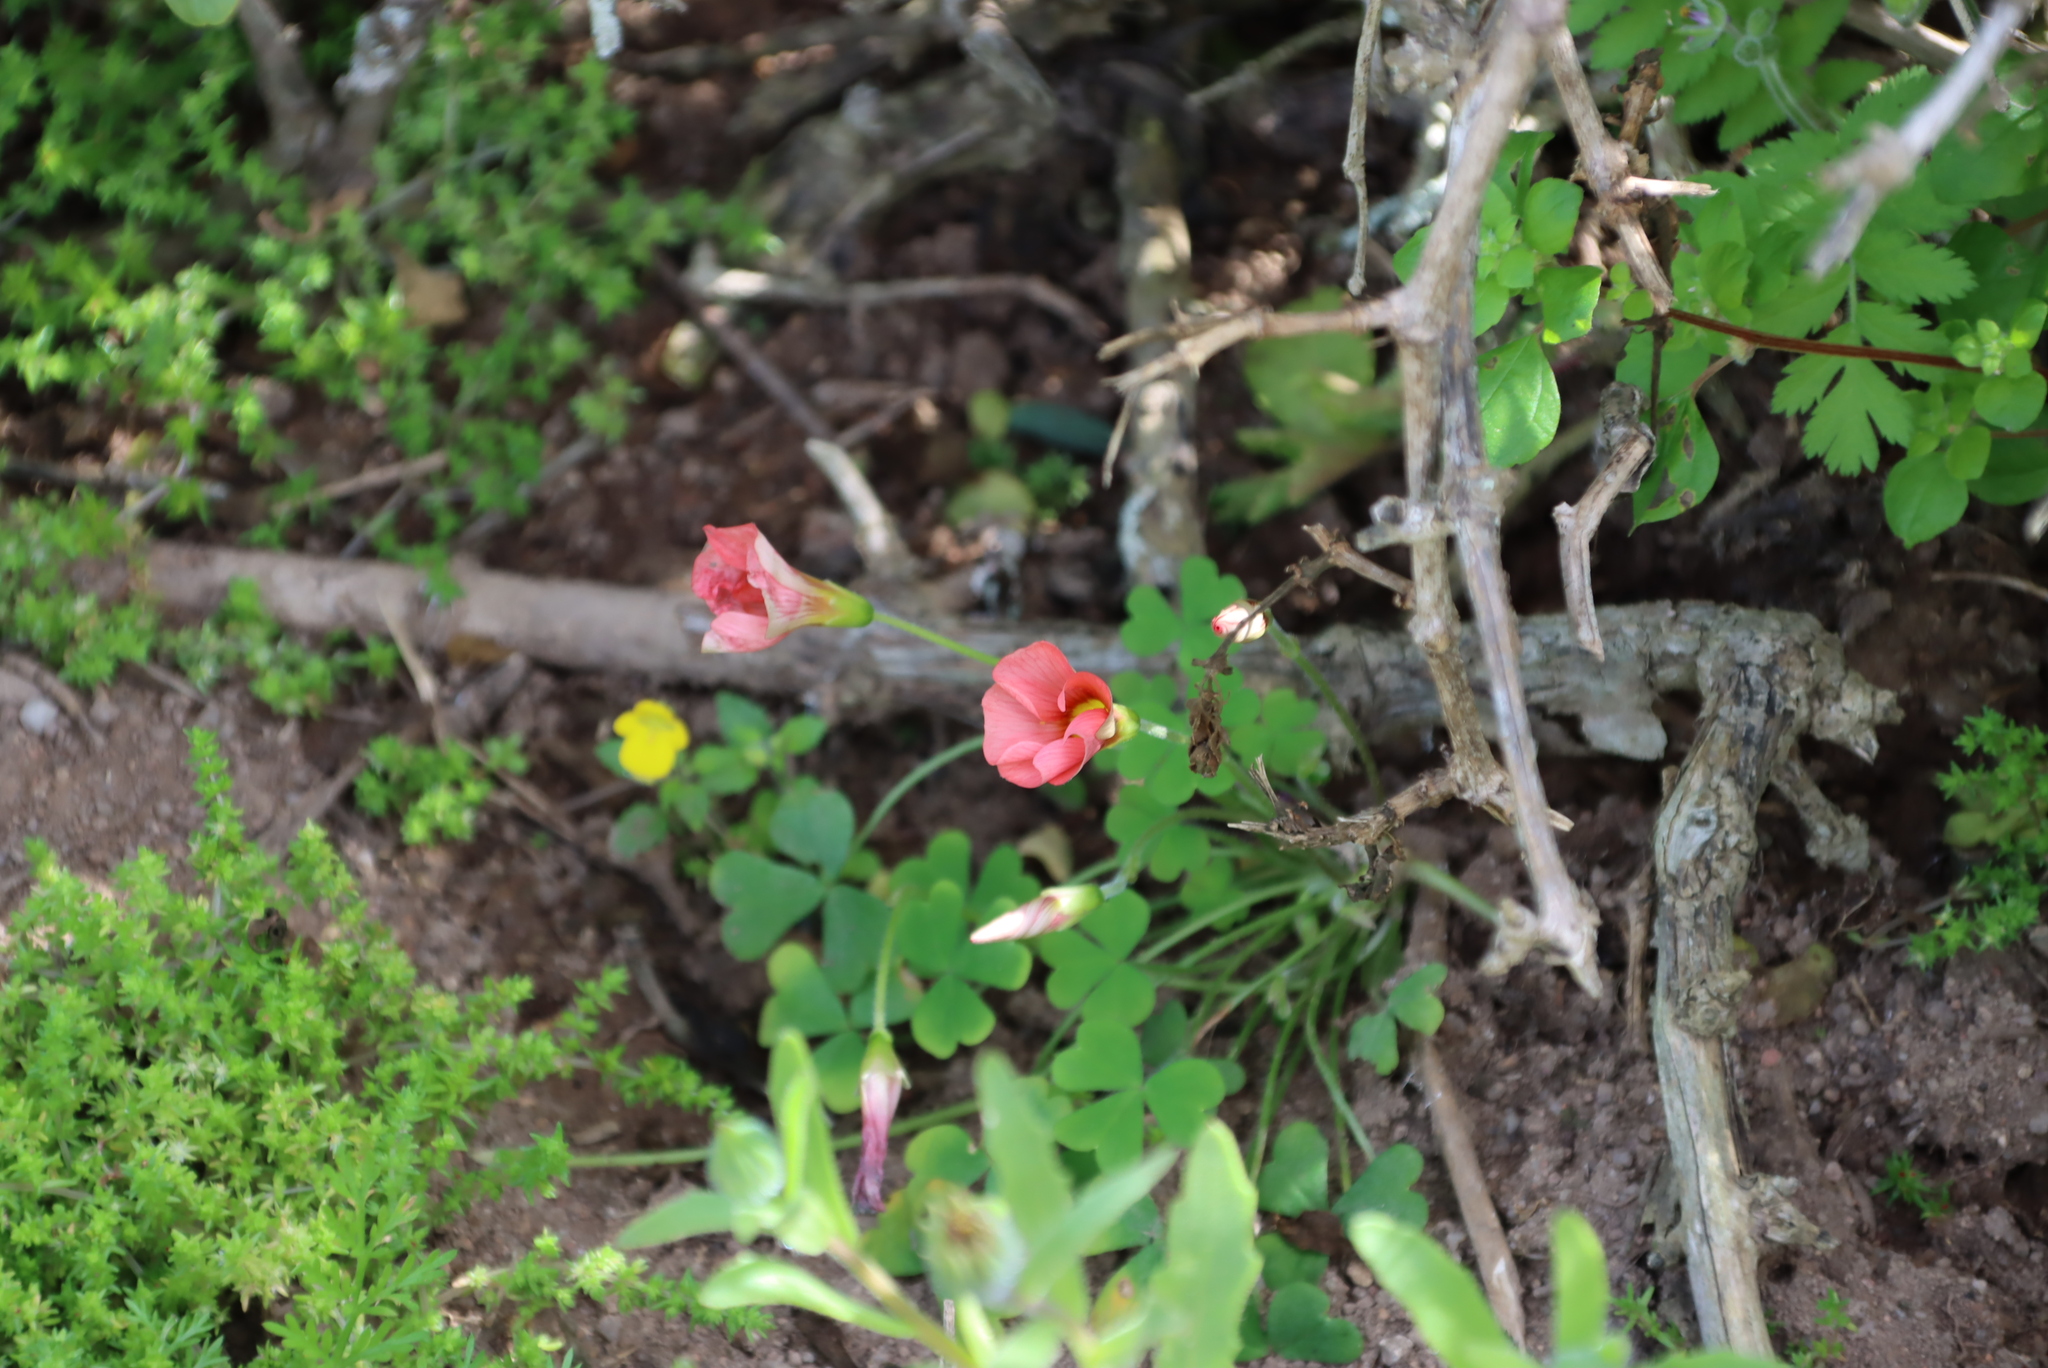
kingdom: Plantae
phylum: Tracheophyta
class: Magnoliopsida
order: Oxalidales
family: Oxalidaceae
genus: Oxalis
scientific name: Oxalis obtusa
